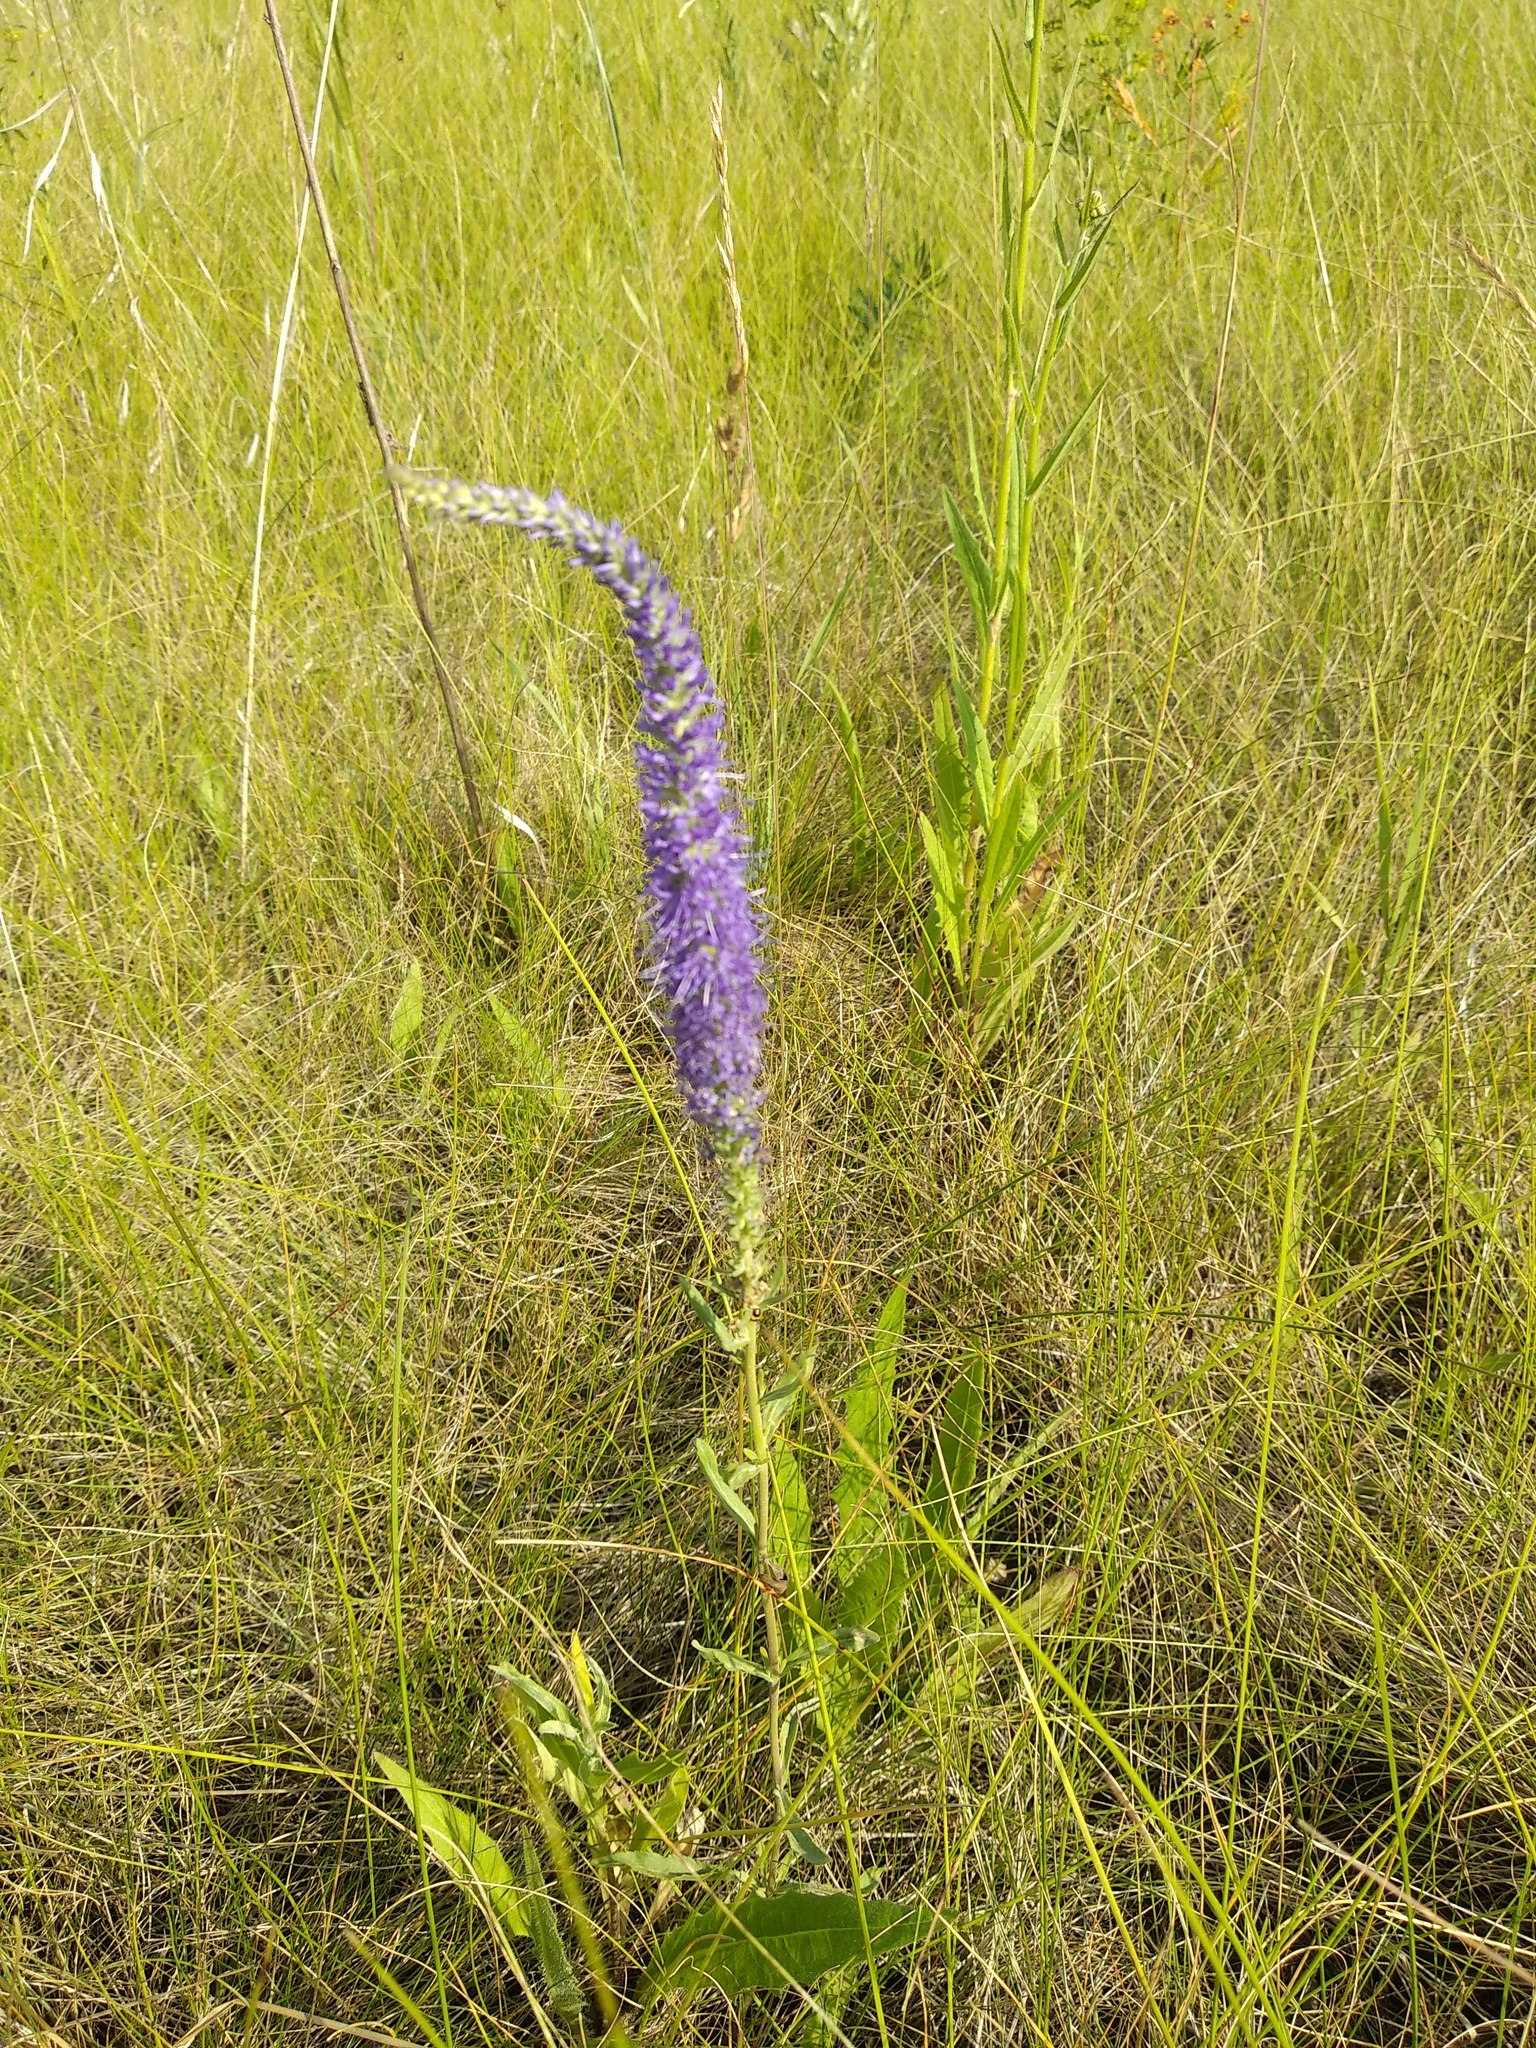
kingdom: Plantae
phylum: Tracheophyta
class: Magnoliopsida
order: Lamiales
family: Plantaginaceae
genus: Veronica
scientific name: Veronica spicata
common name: Spiked speedwell
